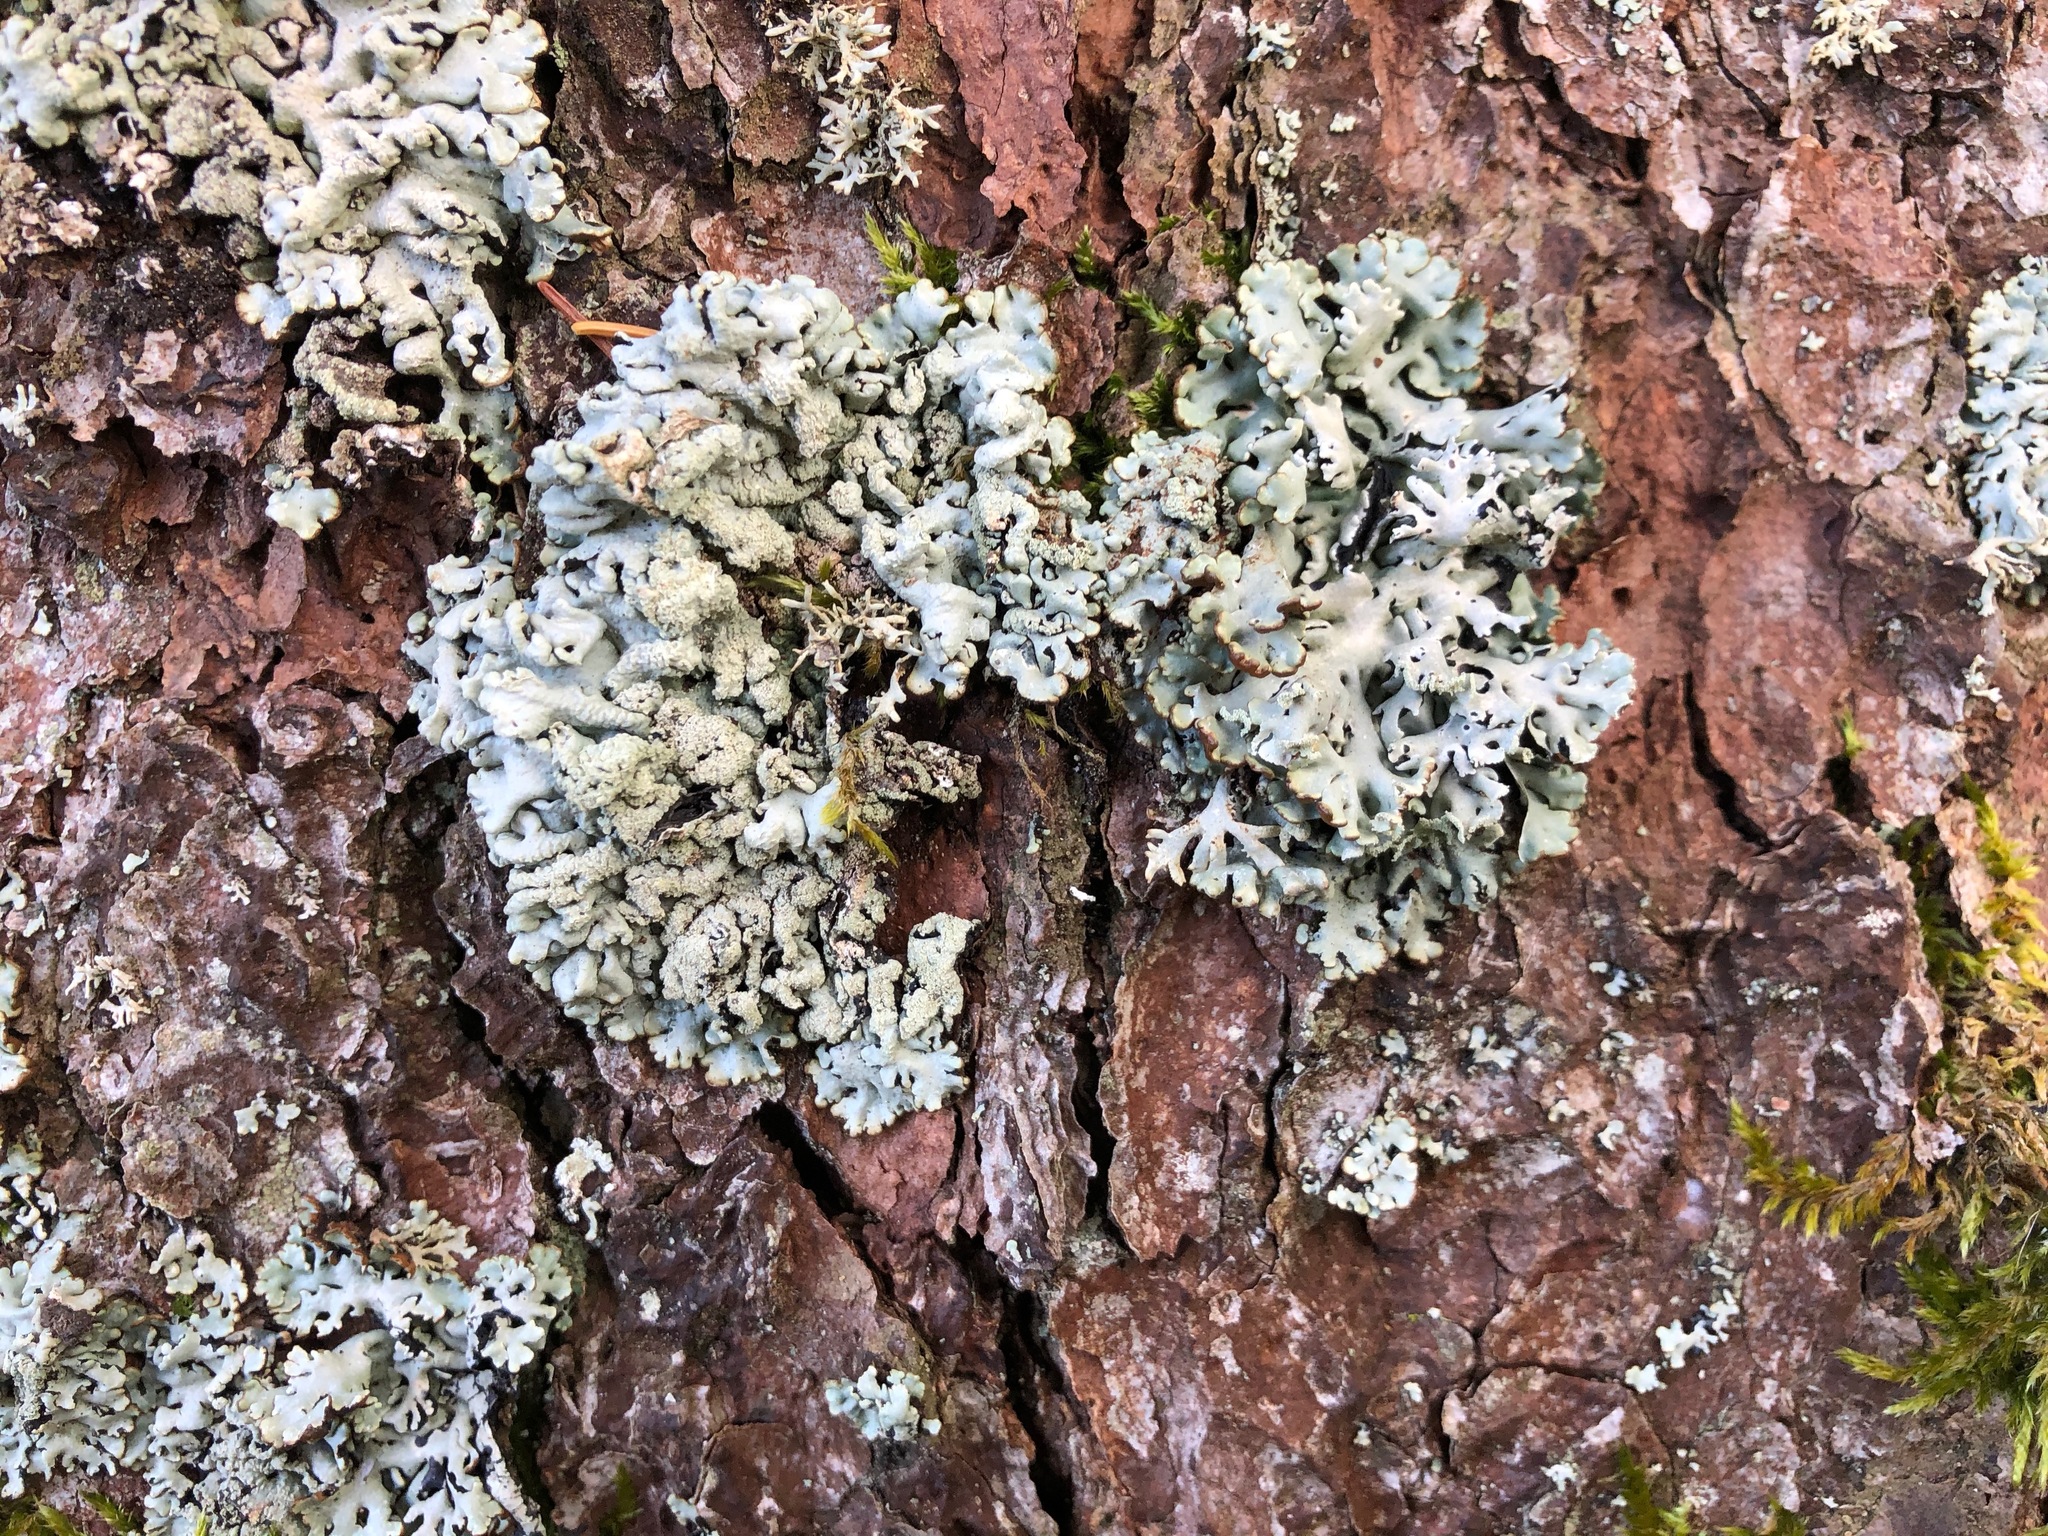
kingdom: Fungi
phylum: Ascomycota
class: Lecanoromycetes
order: Lecanorales
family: Parmeliaceae
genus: Hypogymnia
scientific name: Hypogymnia farinacea
